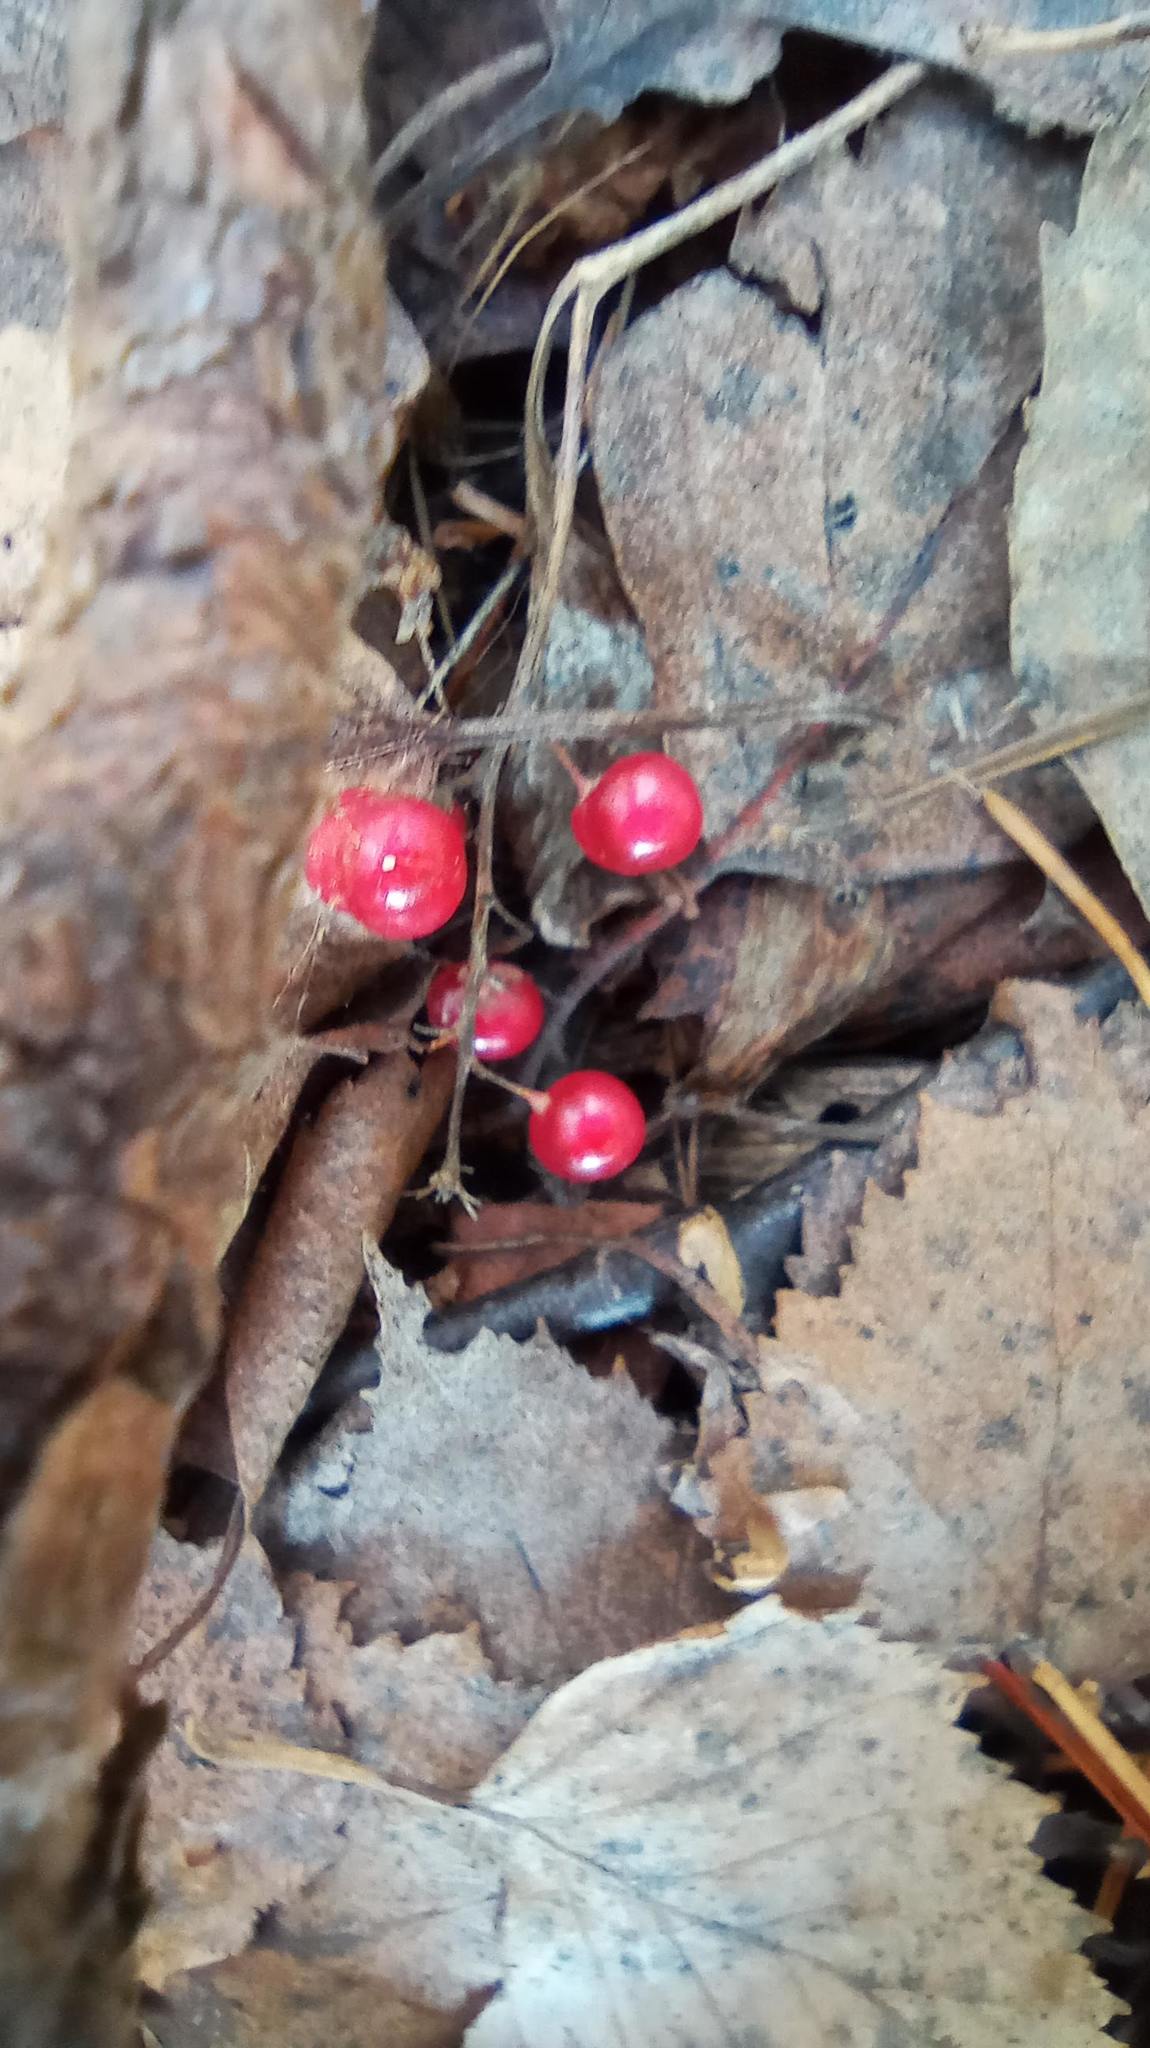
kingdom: Plantae
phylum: Tracheophyta
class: Liliopsida
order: Asparagales
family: Asparagaceae
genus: Maianthemum
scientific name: Maianthemum bifolium
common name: May lily
